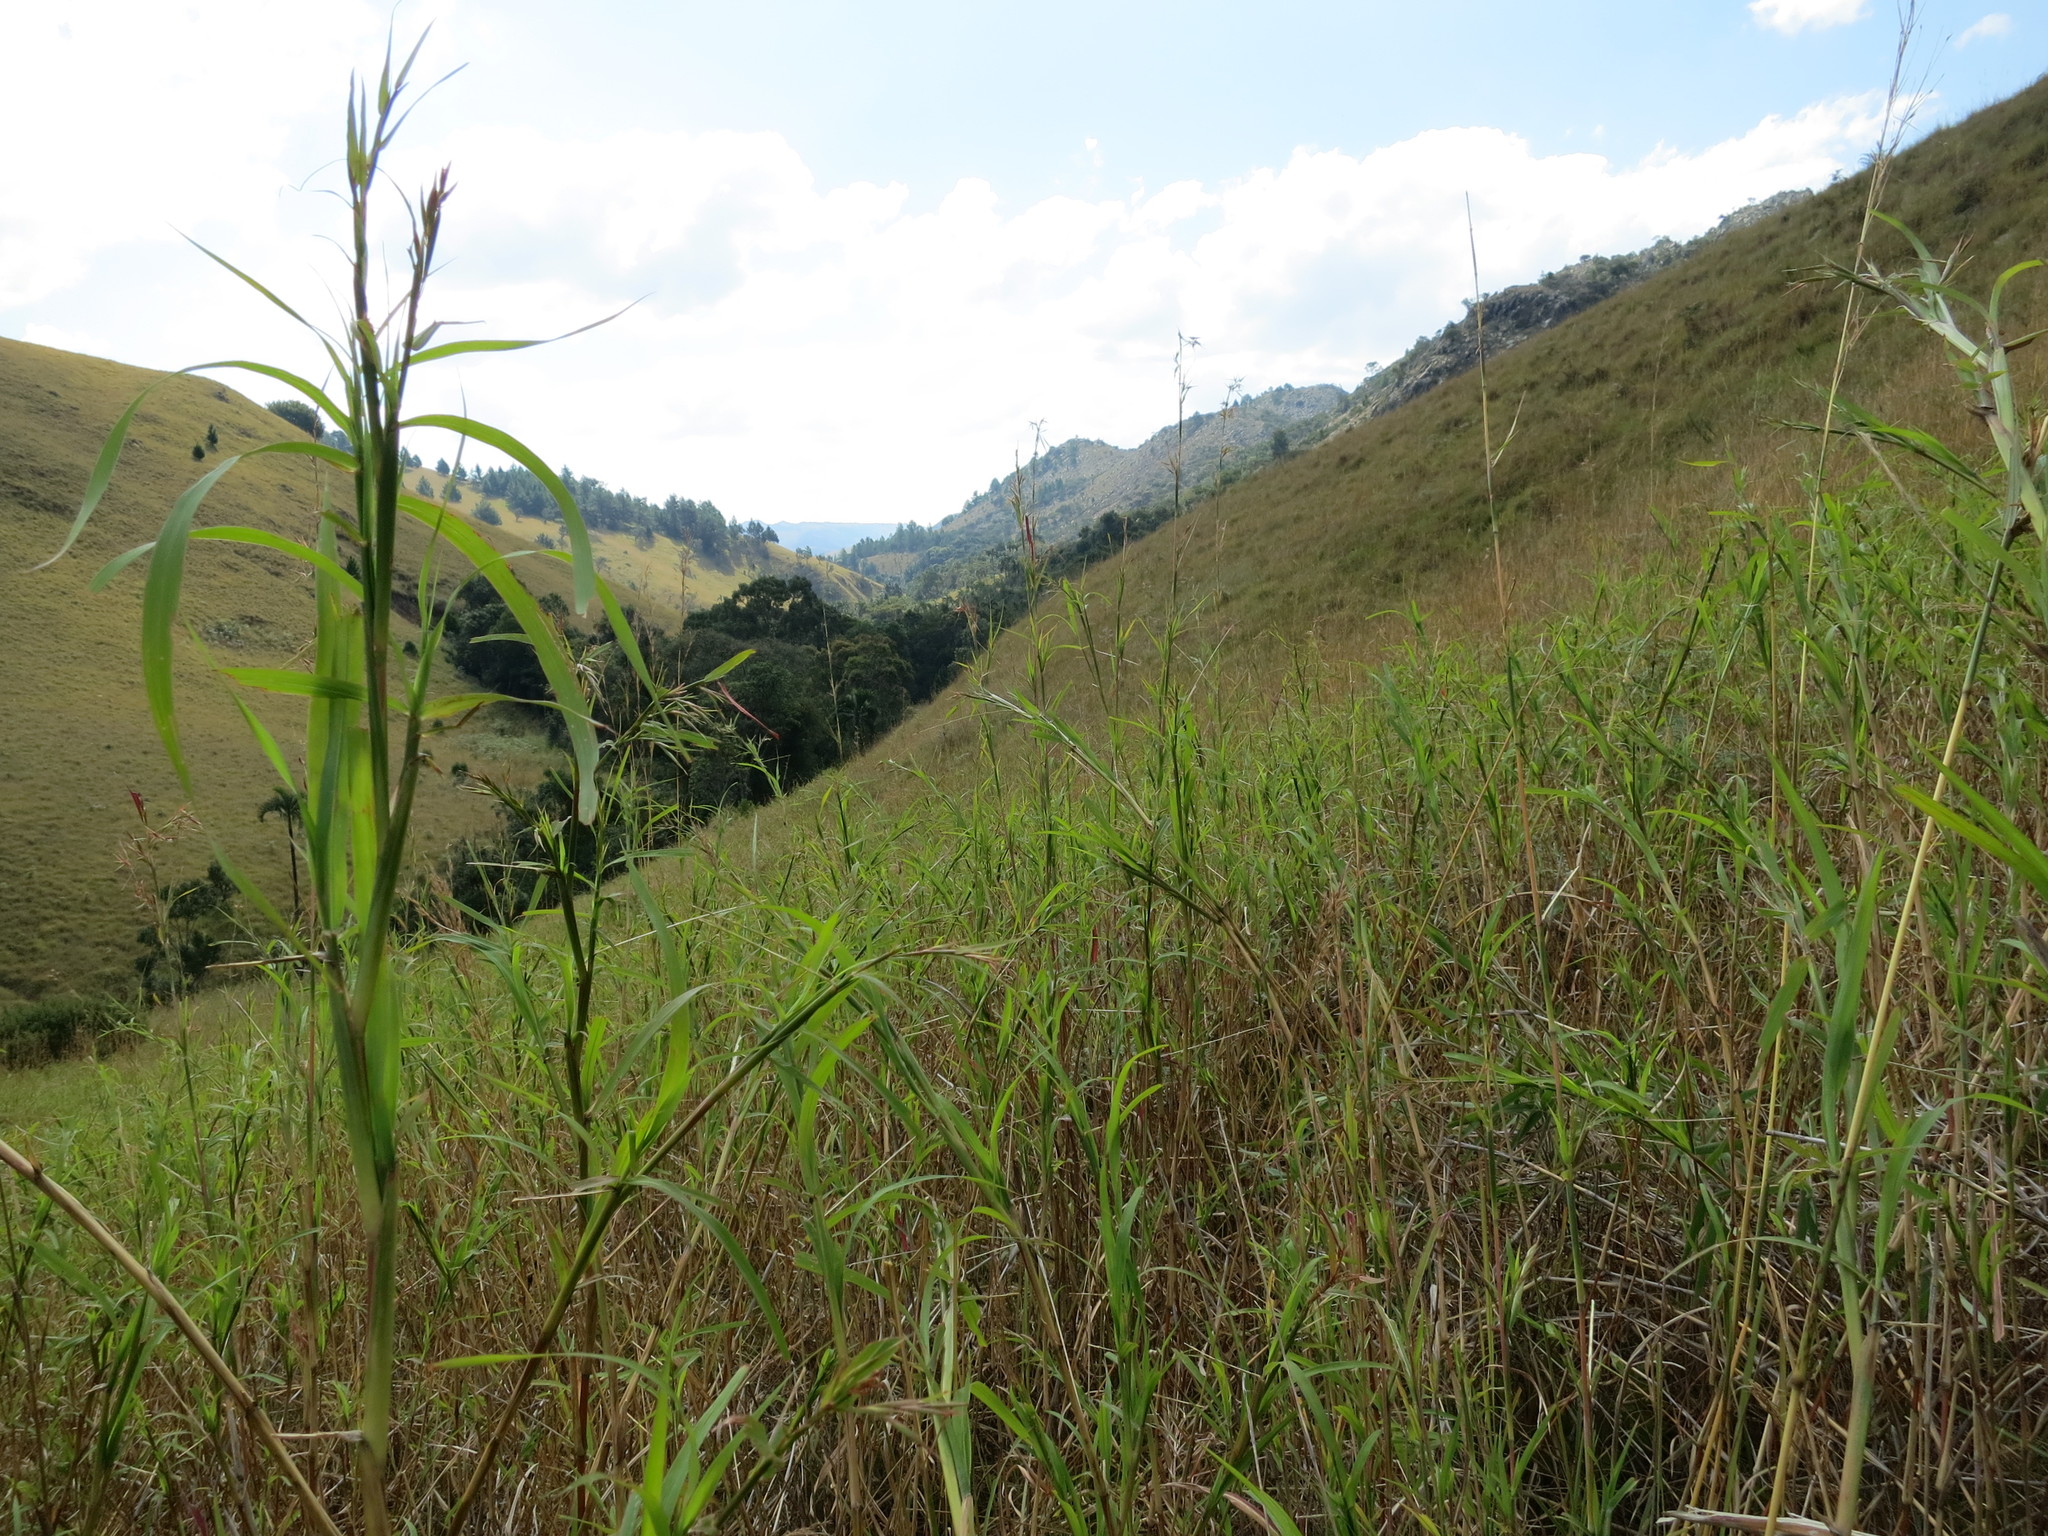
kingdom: Plantae
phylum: Tracheophyta
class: Liliopsida
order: Poales
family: Poaceae
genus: Hyparrhenia
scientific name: Hyparrhenia schimperi
